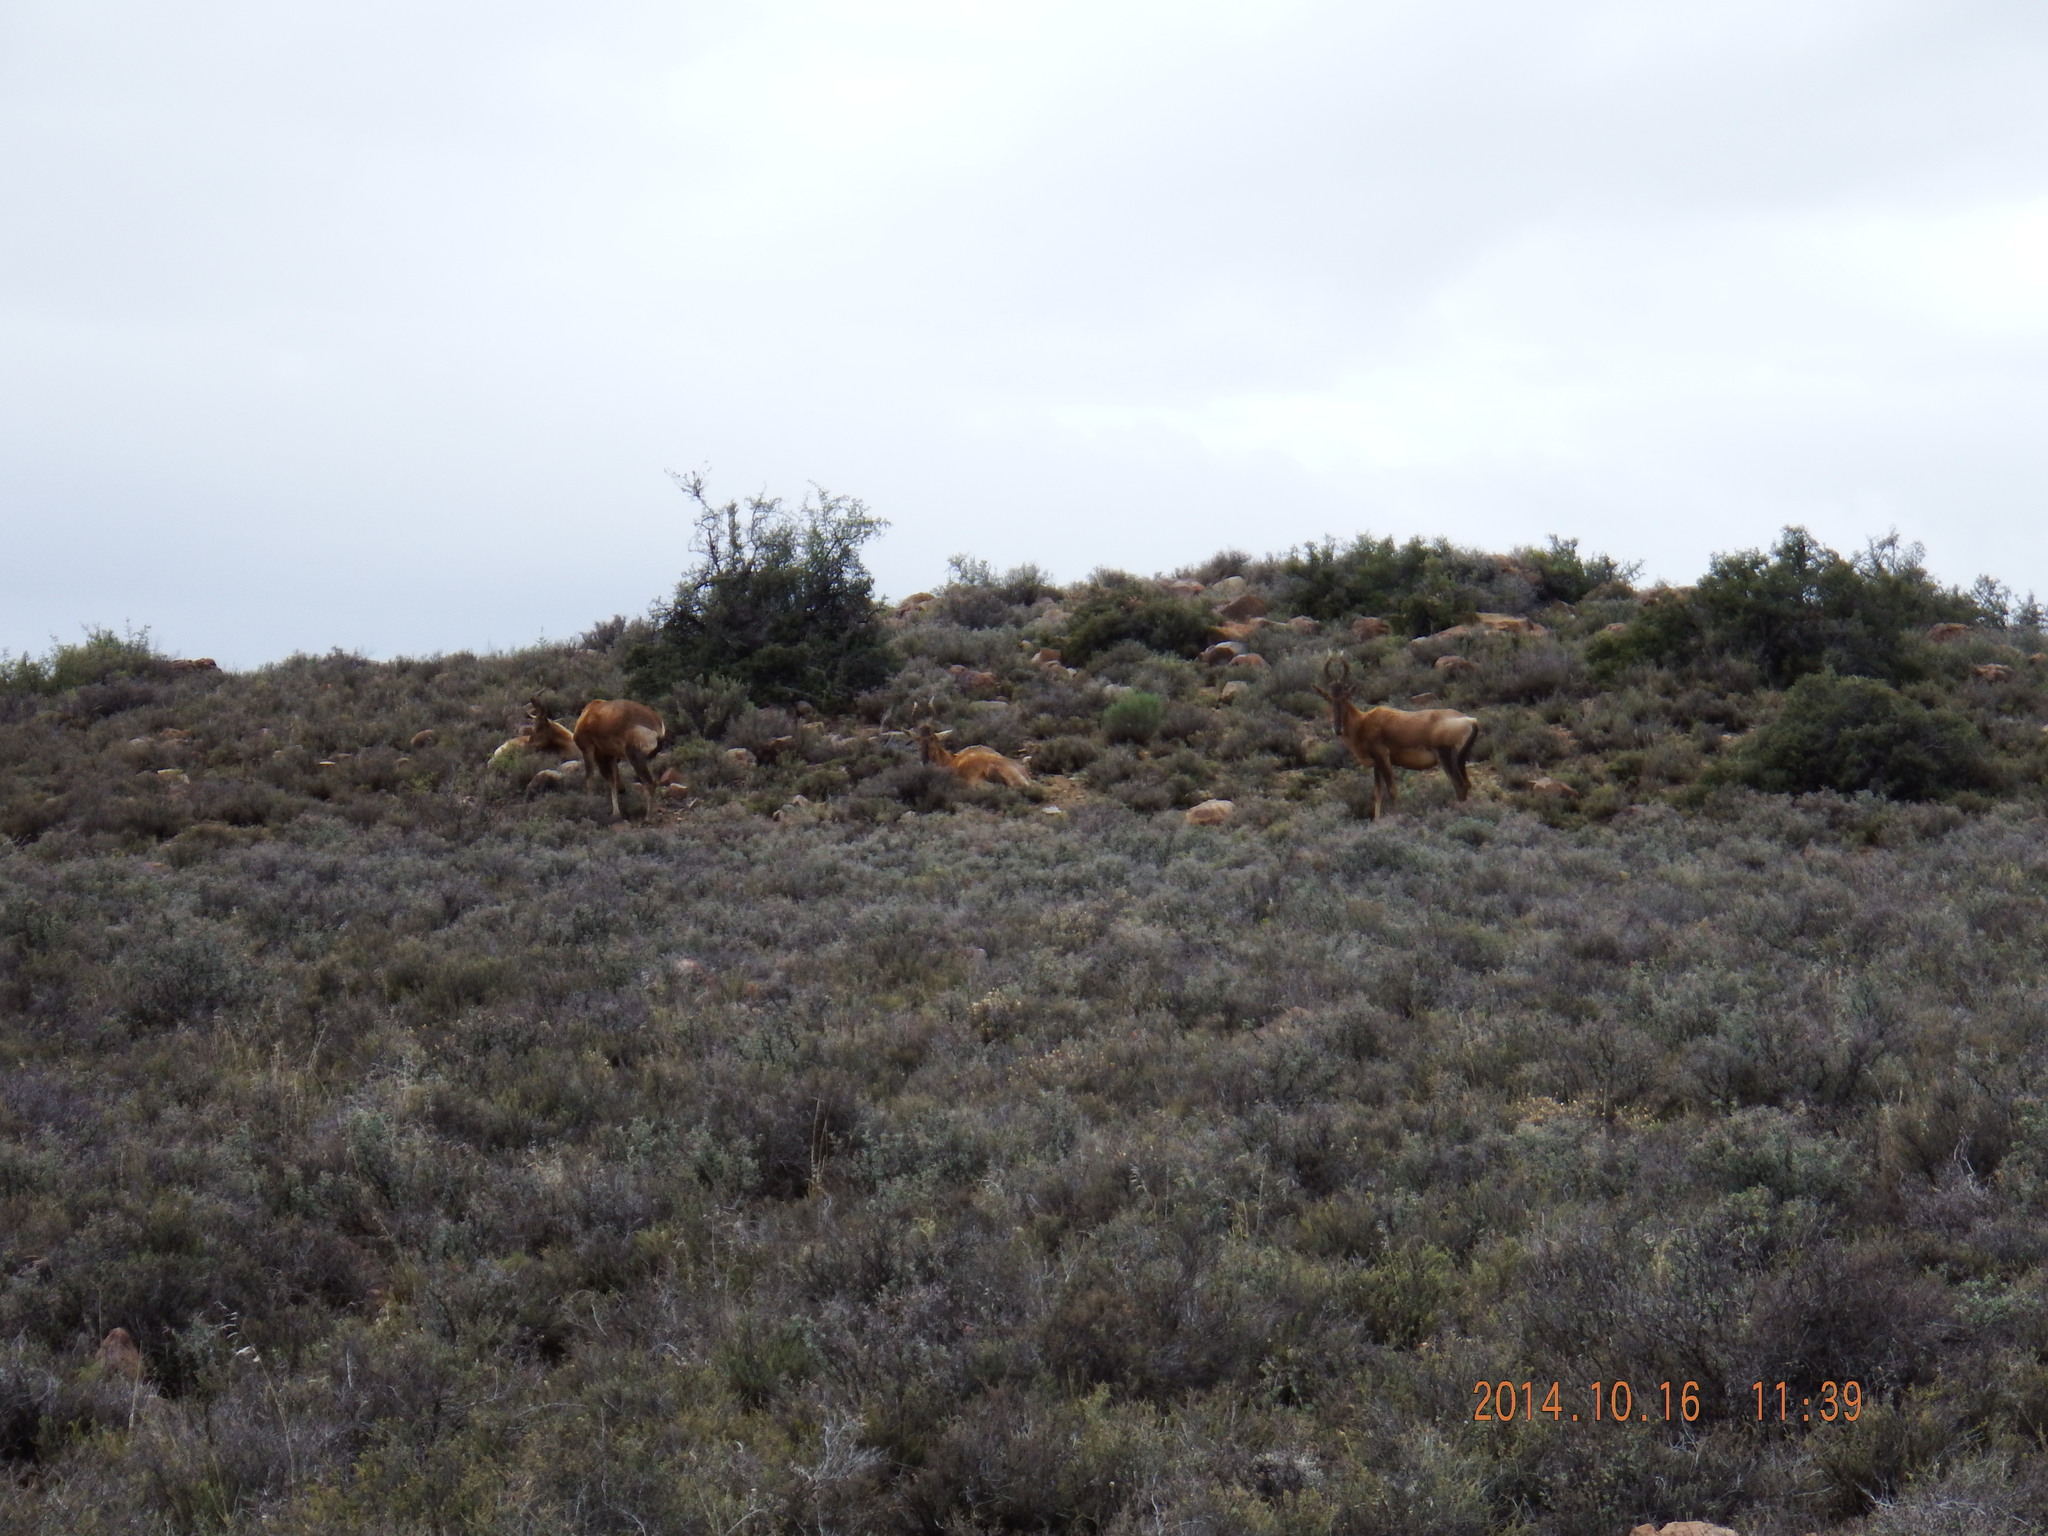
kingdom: Animalia
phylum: Chordata
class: Mammalia
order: Artiodactyla
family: Bovidae
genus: Alcelaphus
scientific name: Alcelaphus caama
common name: Red hartebeest
